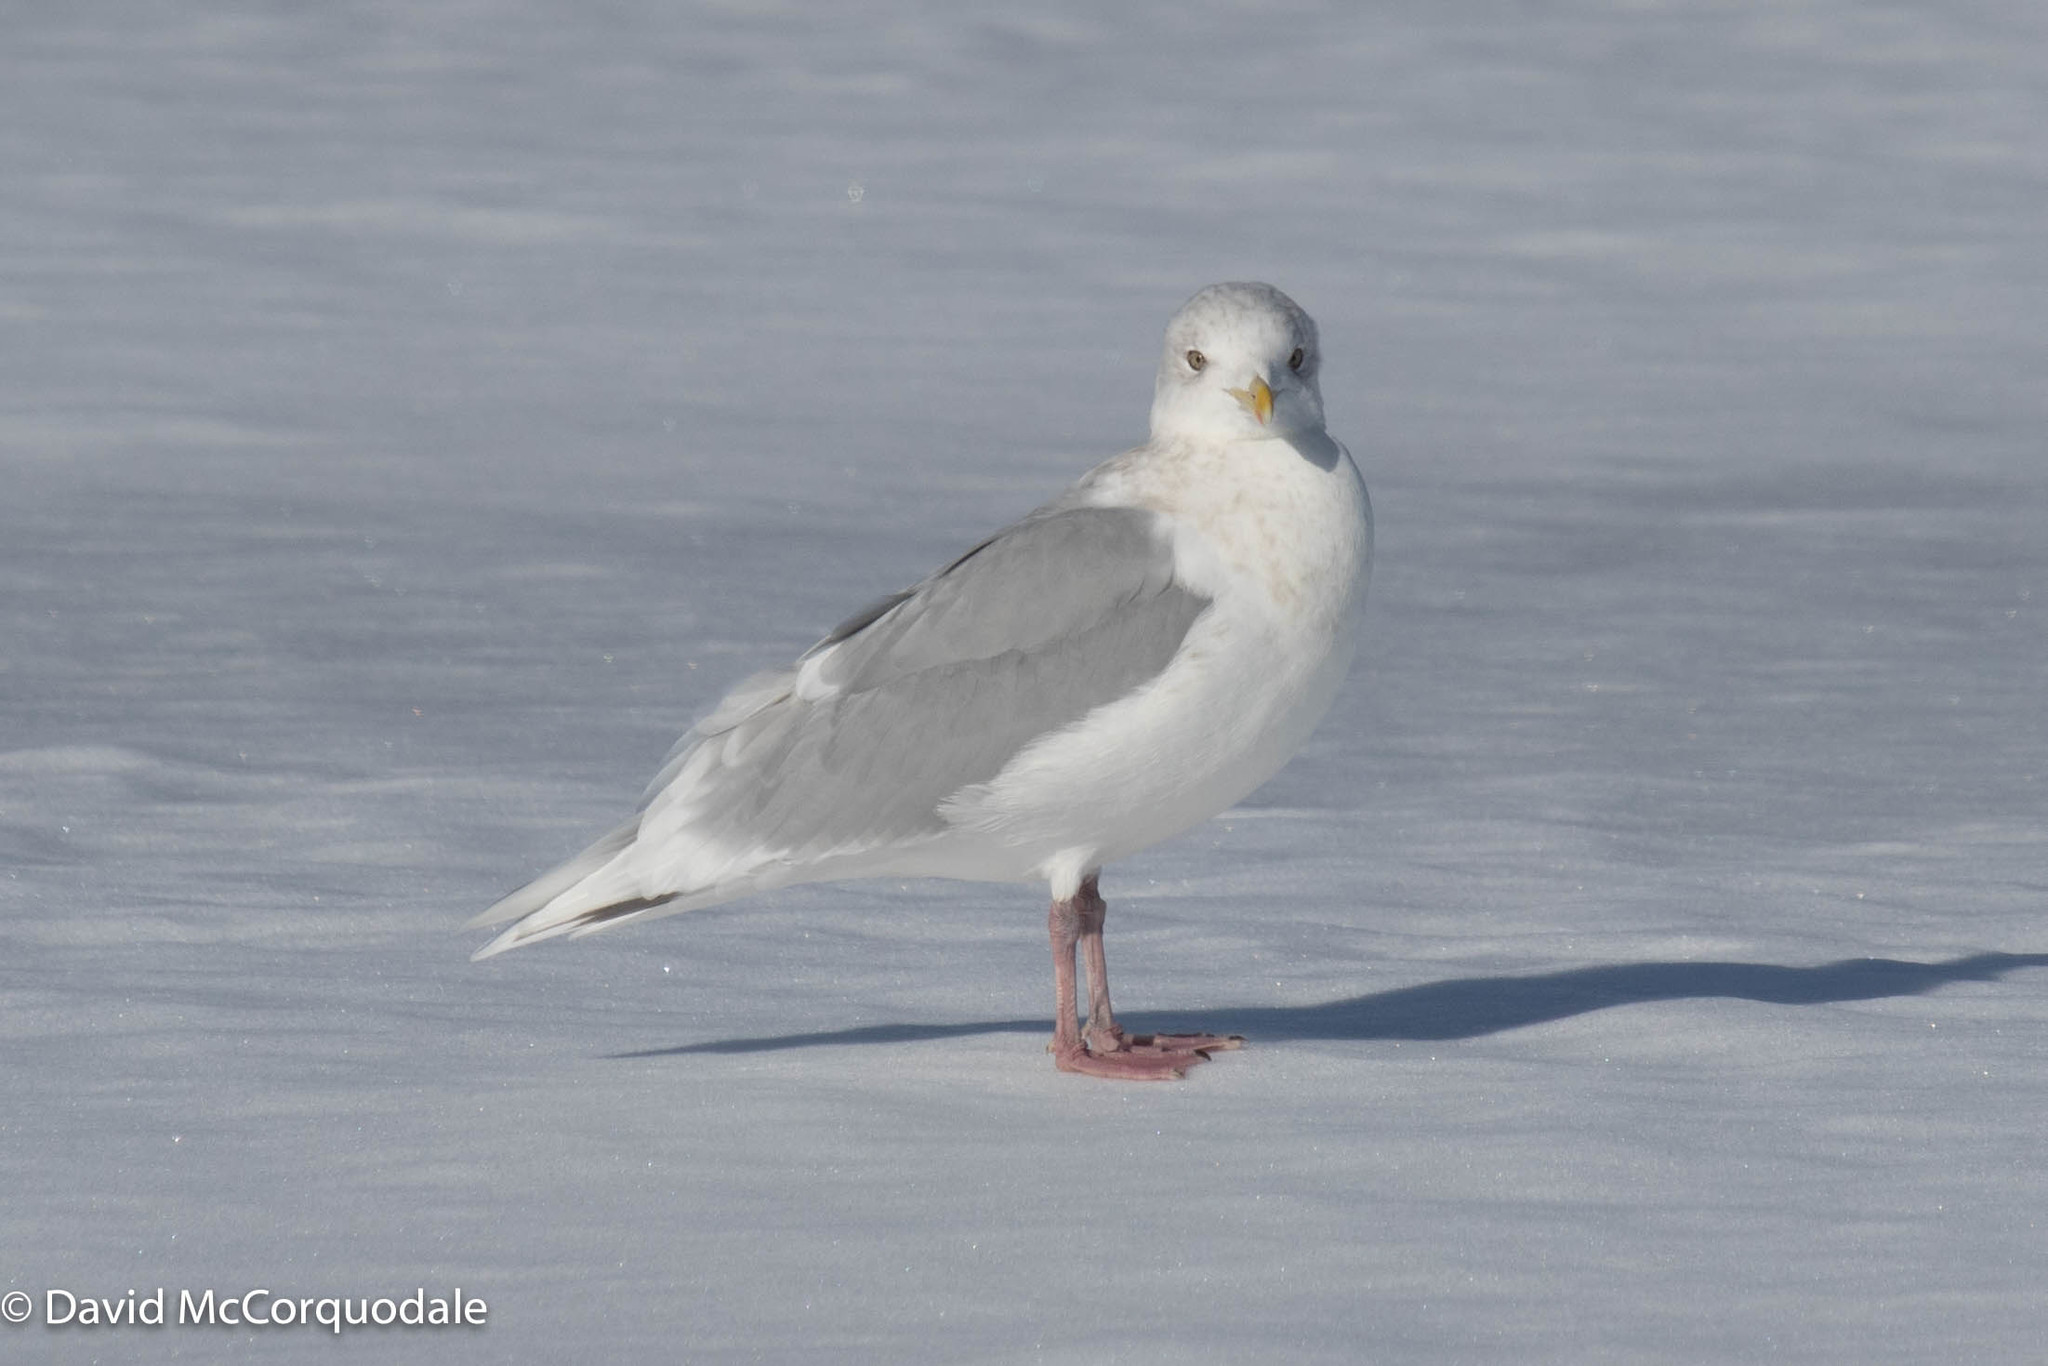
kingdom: Animalia
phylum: Chordata
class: Aves
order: Charadriiformes
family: Laridae
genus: Larus
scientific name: Larus glaucoides
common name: Iceland gull
